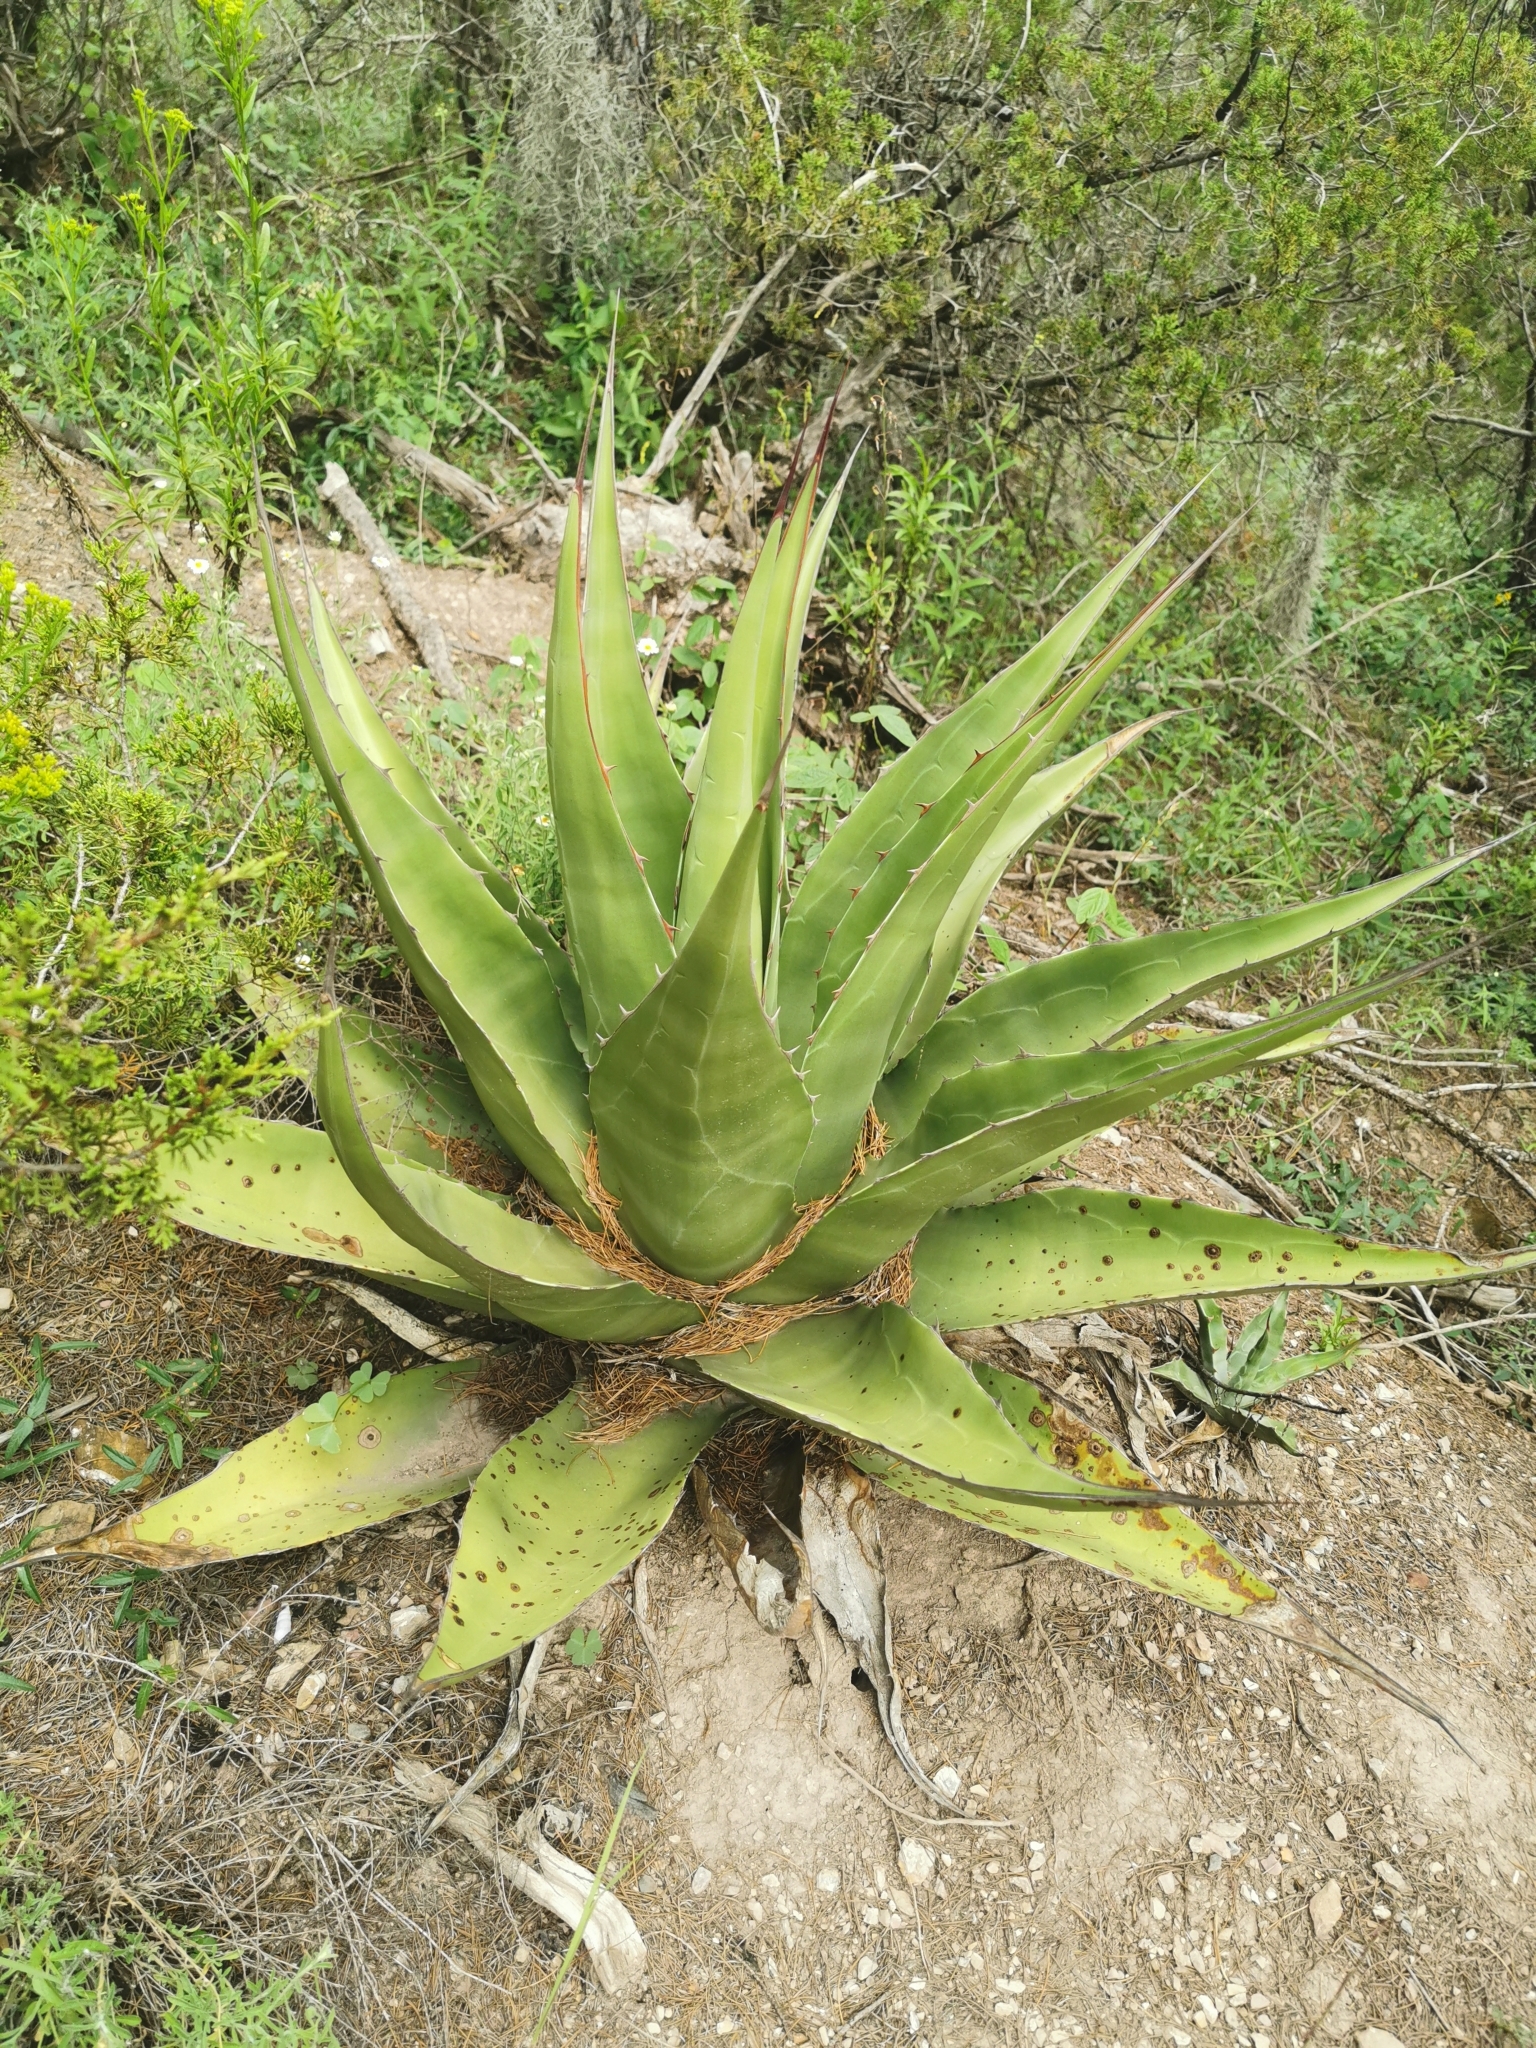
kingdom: Plantae
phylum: Tracheophyta
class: Liliopsida
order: Asparagales
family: Asparagaceae
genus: Agave
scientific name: Agave gentryi
